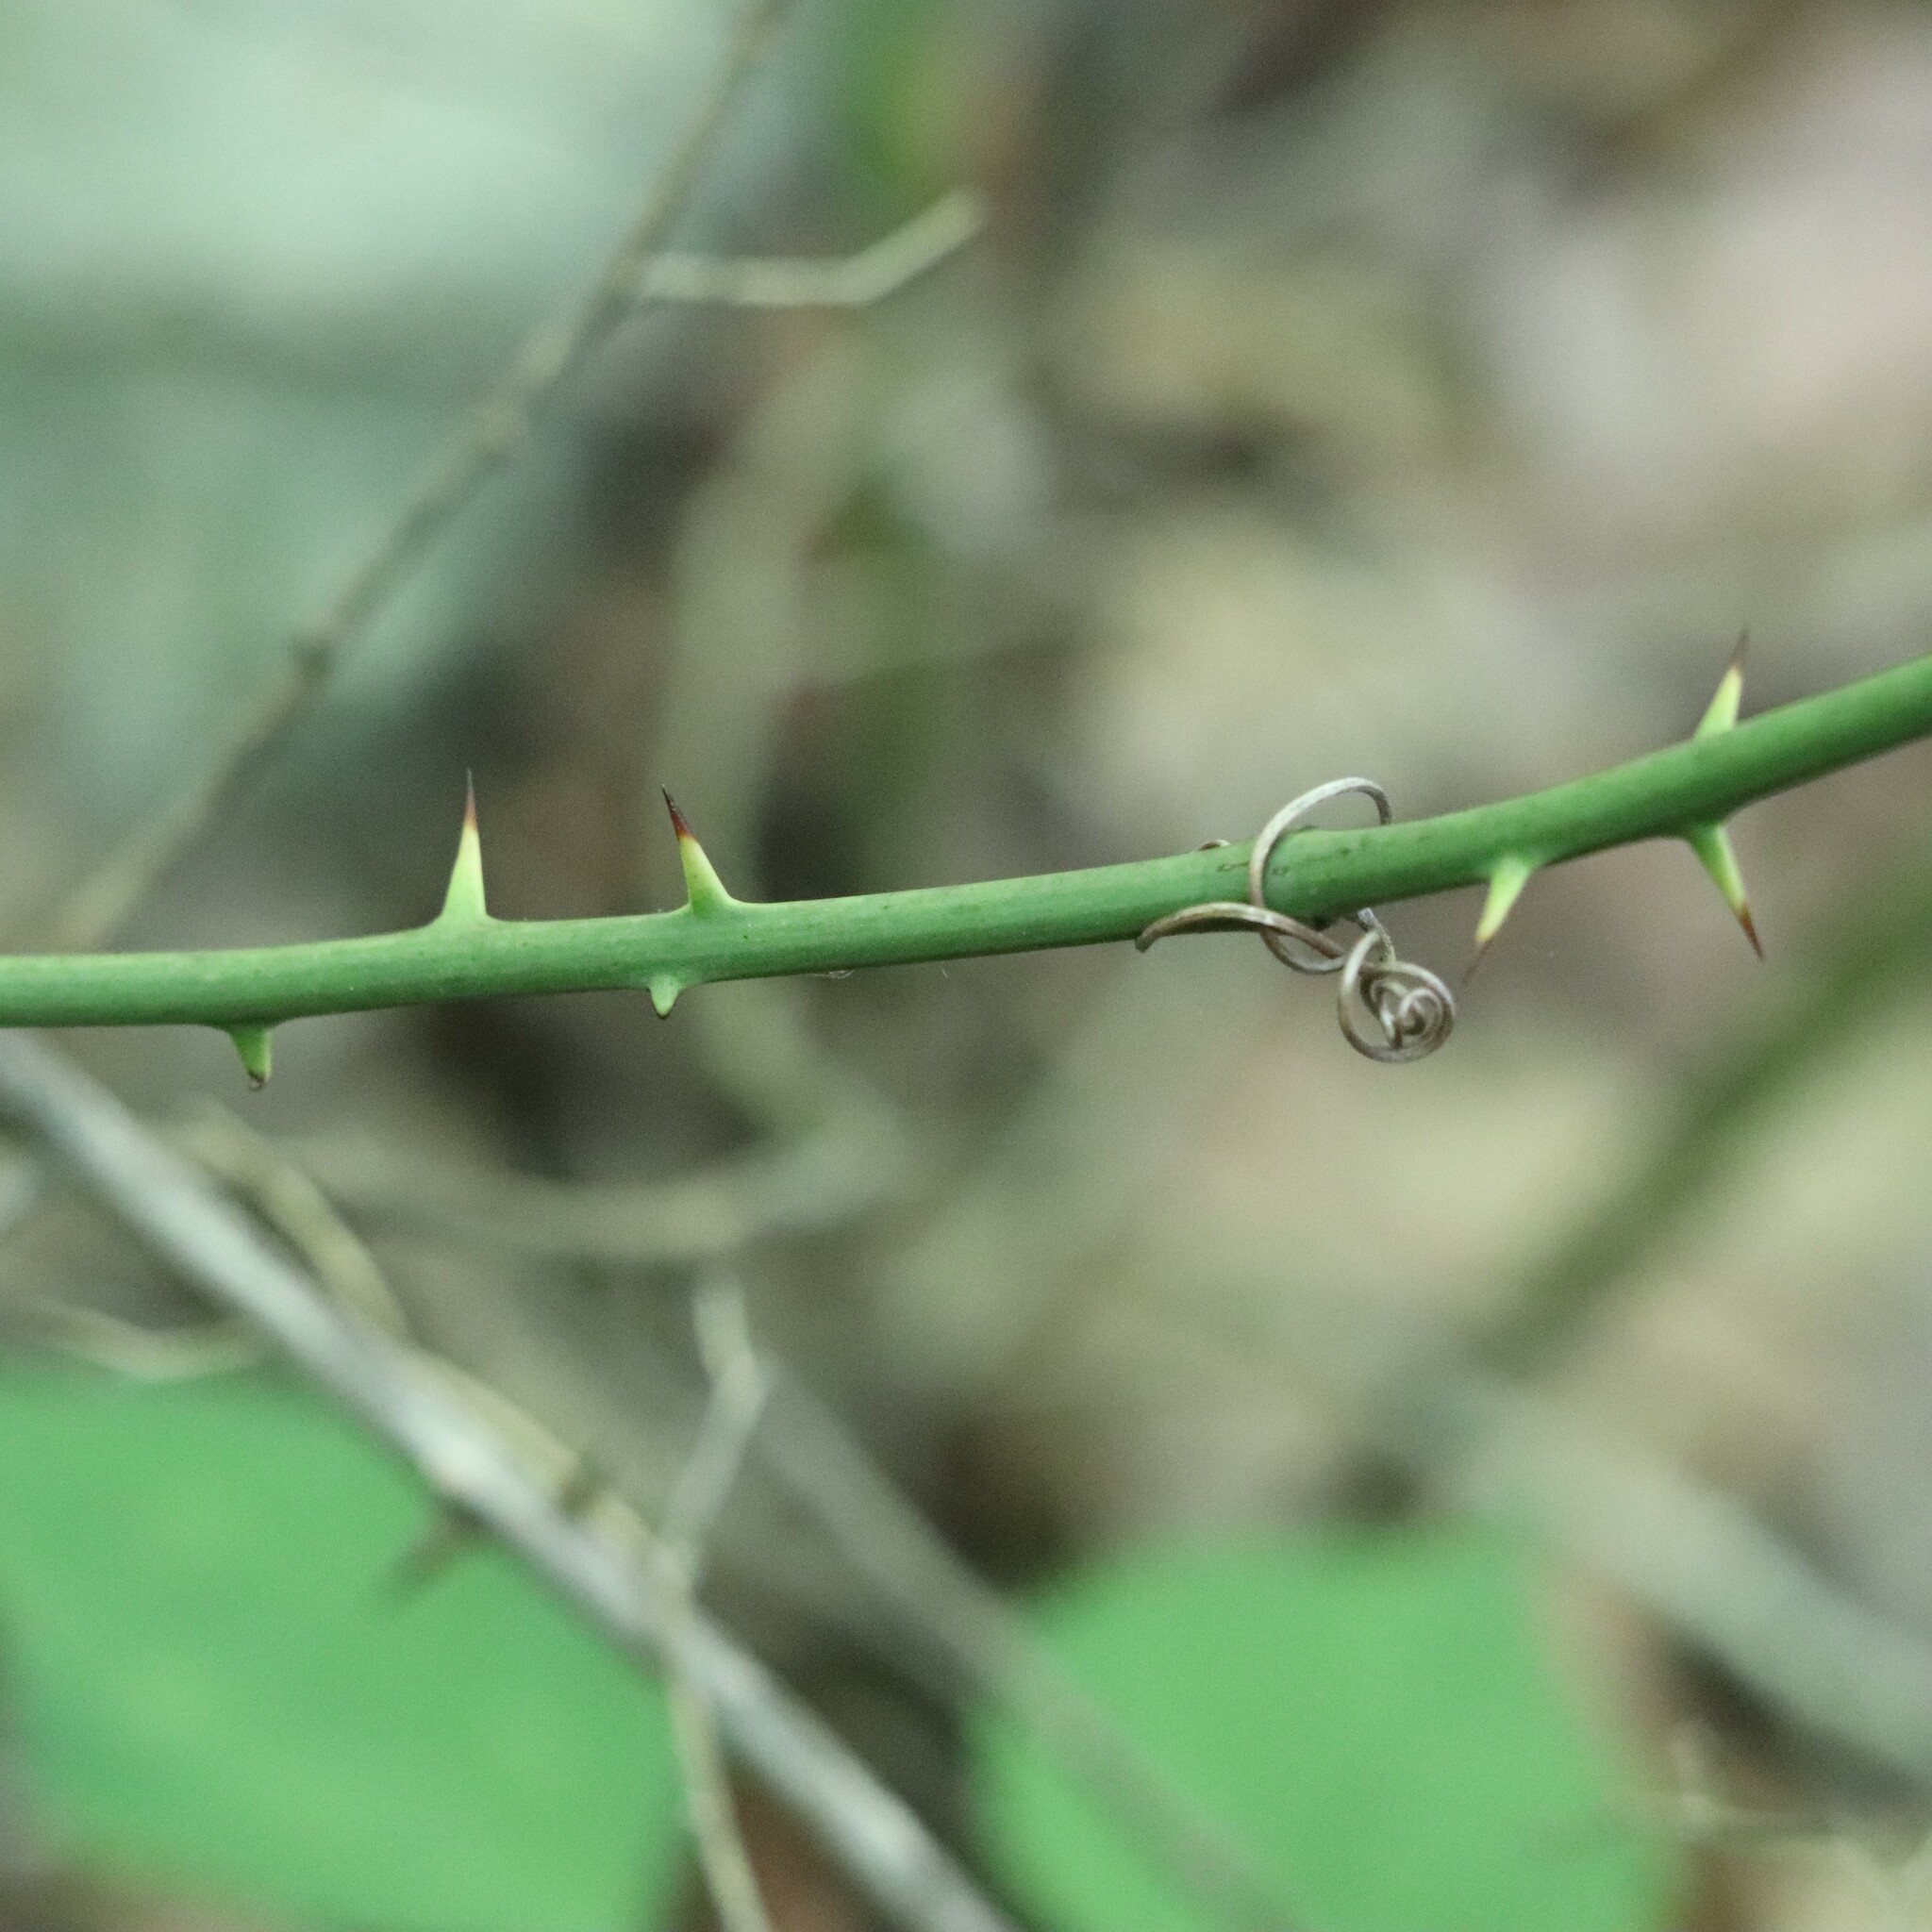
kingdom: Plantae
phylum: Tracheophyta
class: Liliopsida
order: Liliales
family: Smilacaceae
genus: Smilax
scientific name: Smilax rotundifolia
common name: Bullbriar
